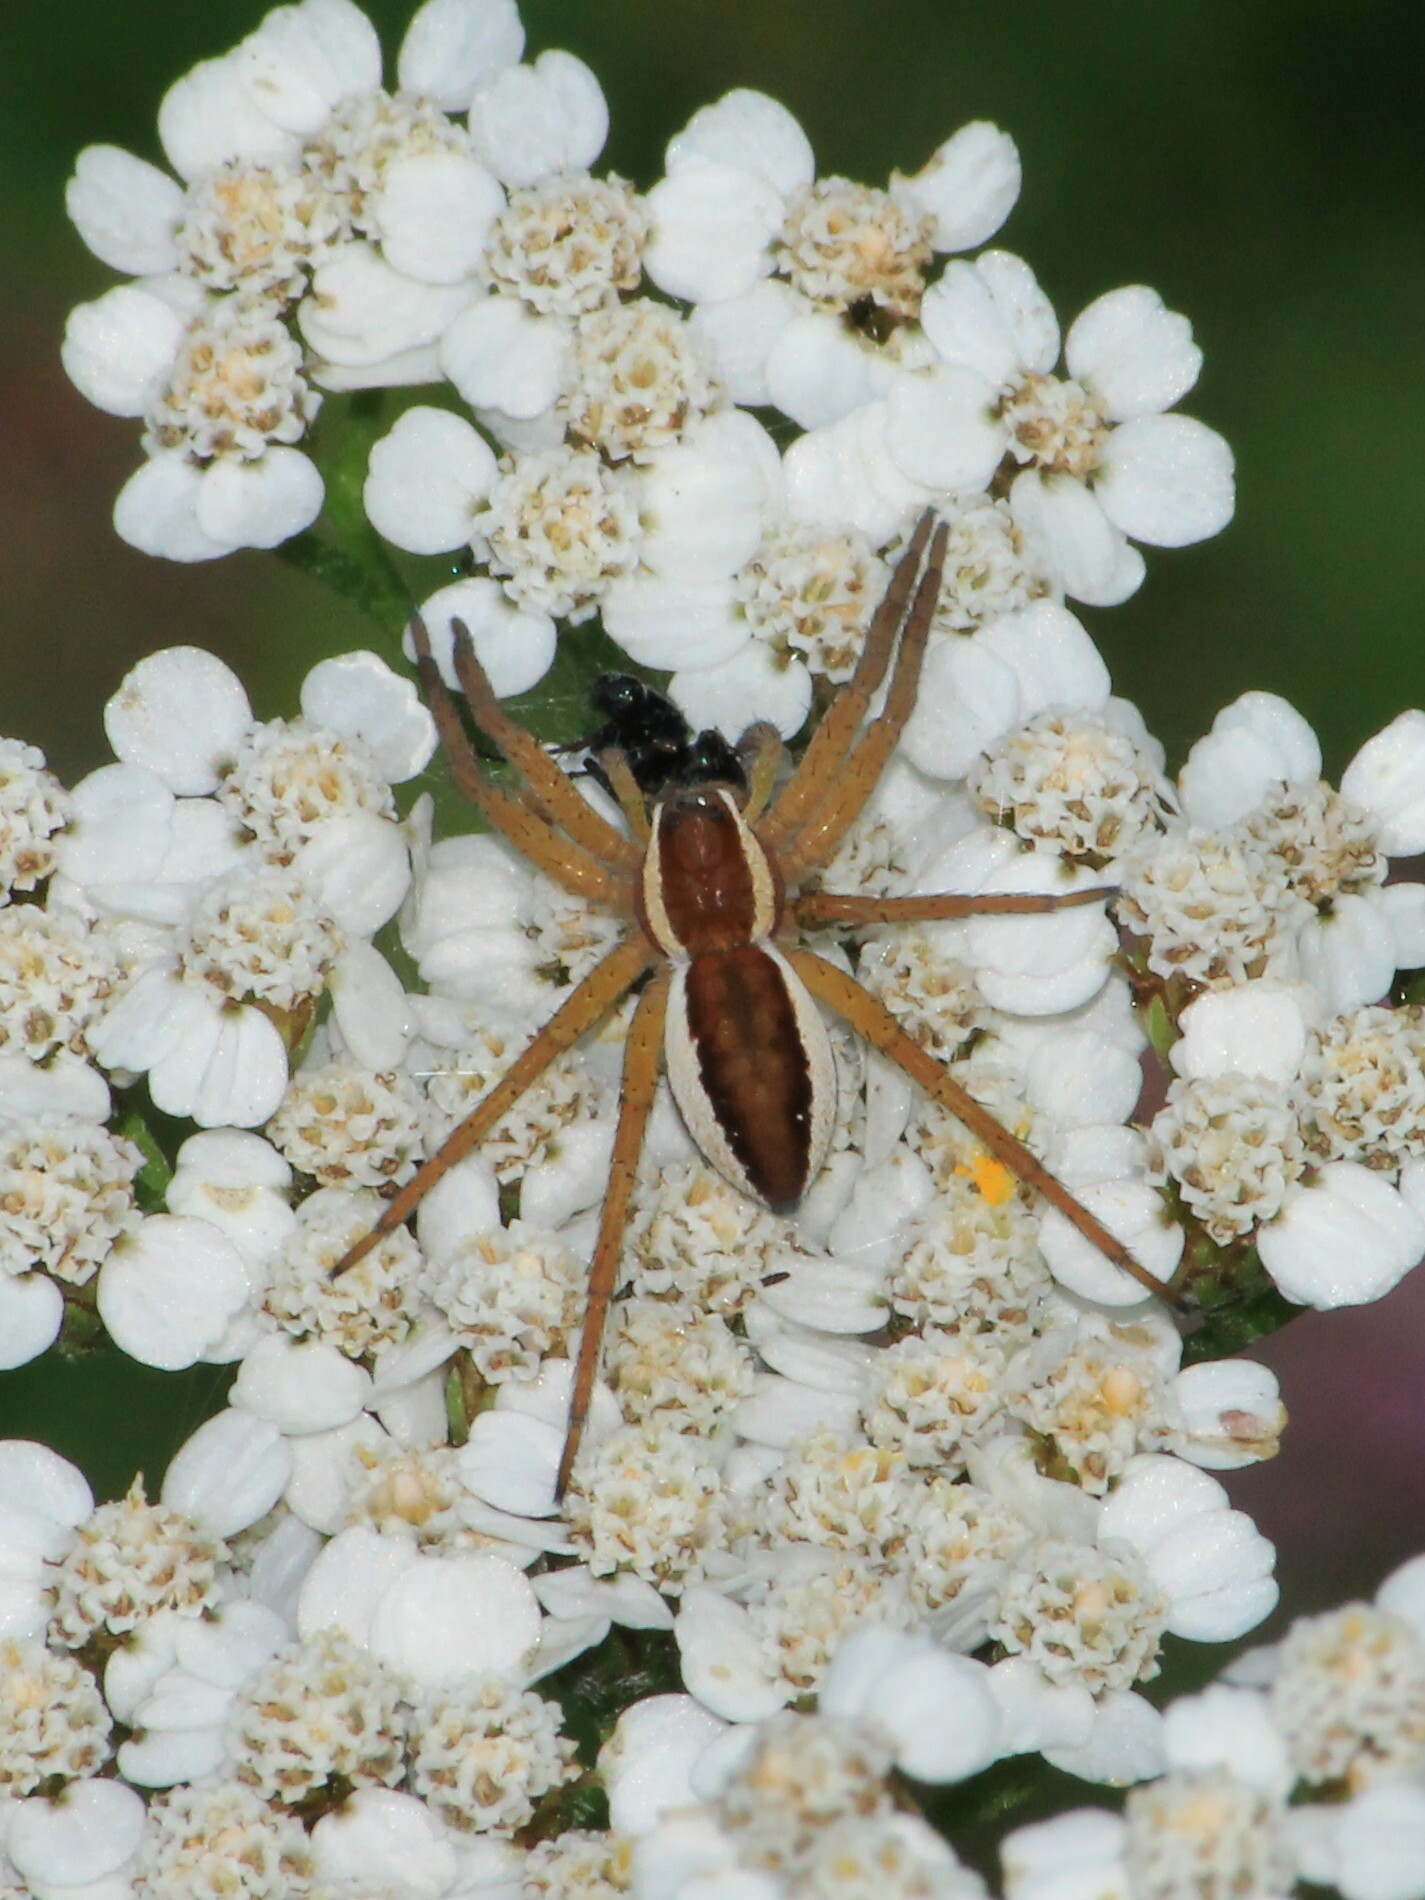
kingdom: Animalia
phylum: Arthropoda
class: Arachnida
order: Araneae
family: Pisauridae
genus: Dolomedes
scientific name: Dolomedes fimbriatus
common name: Raft spider
